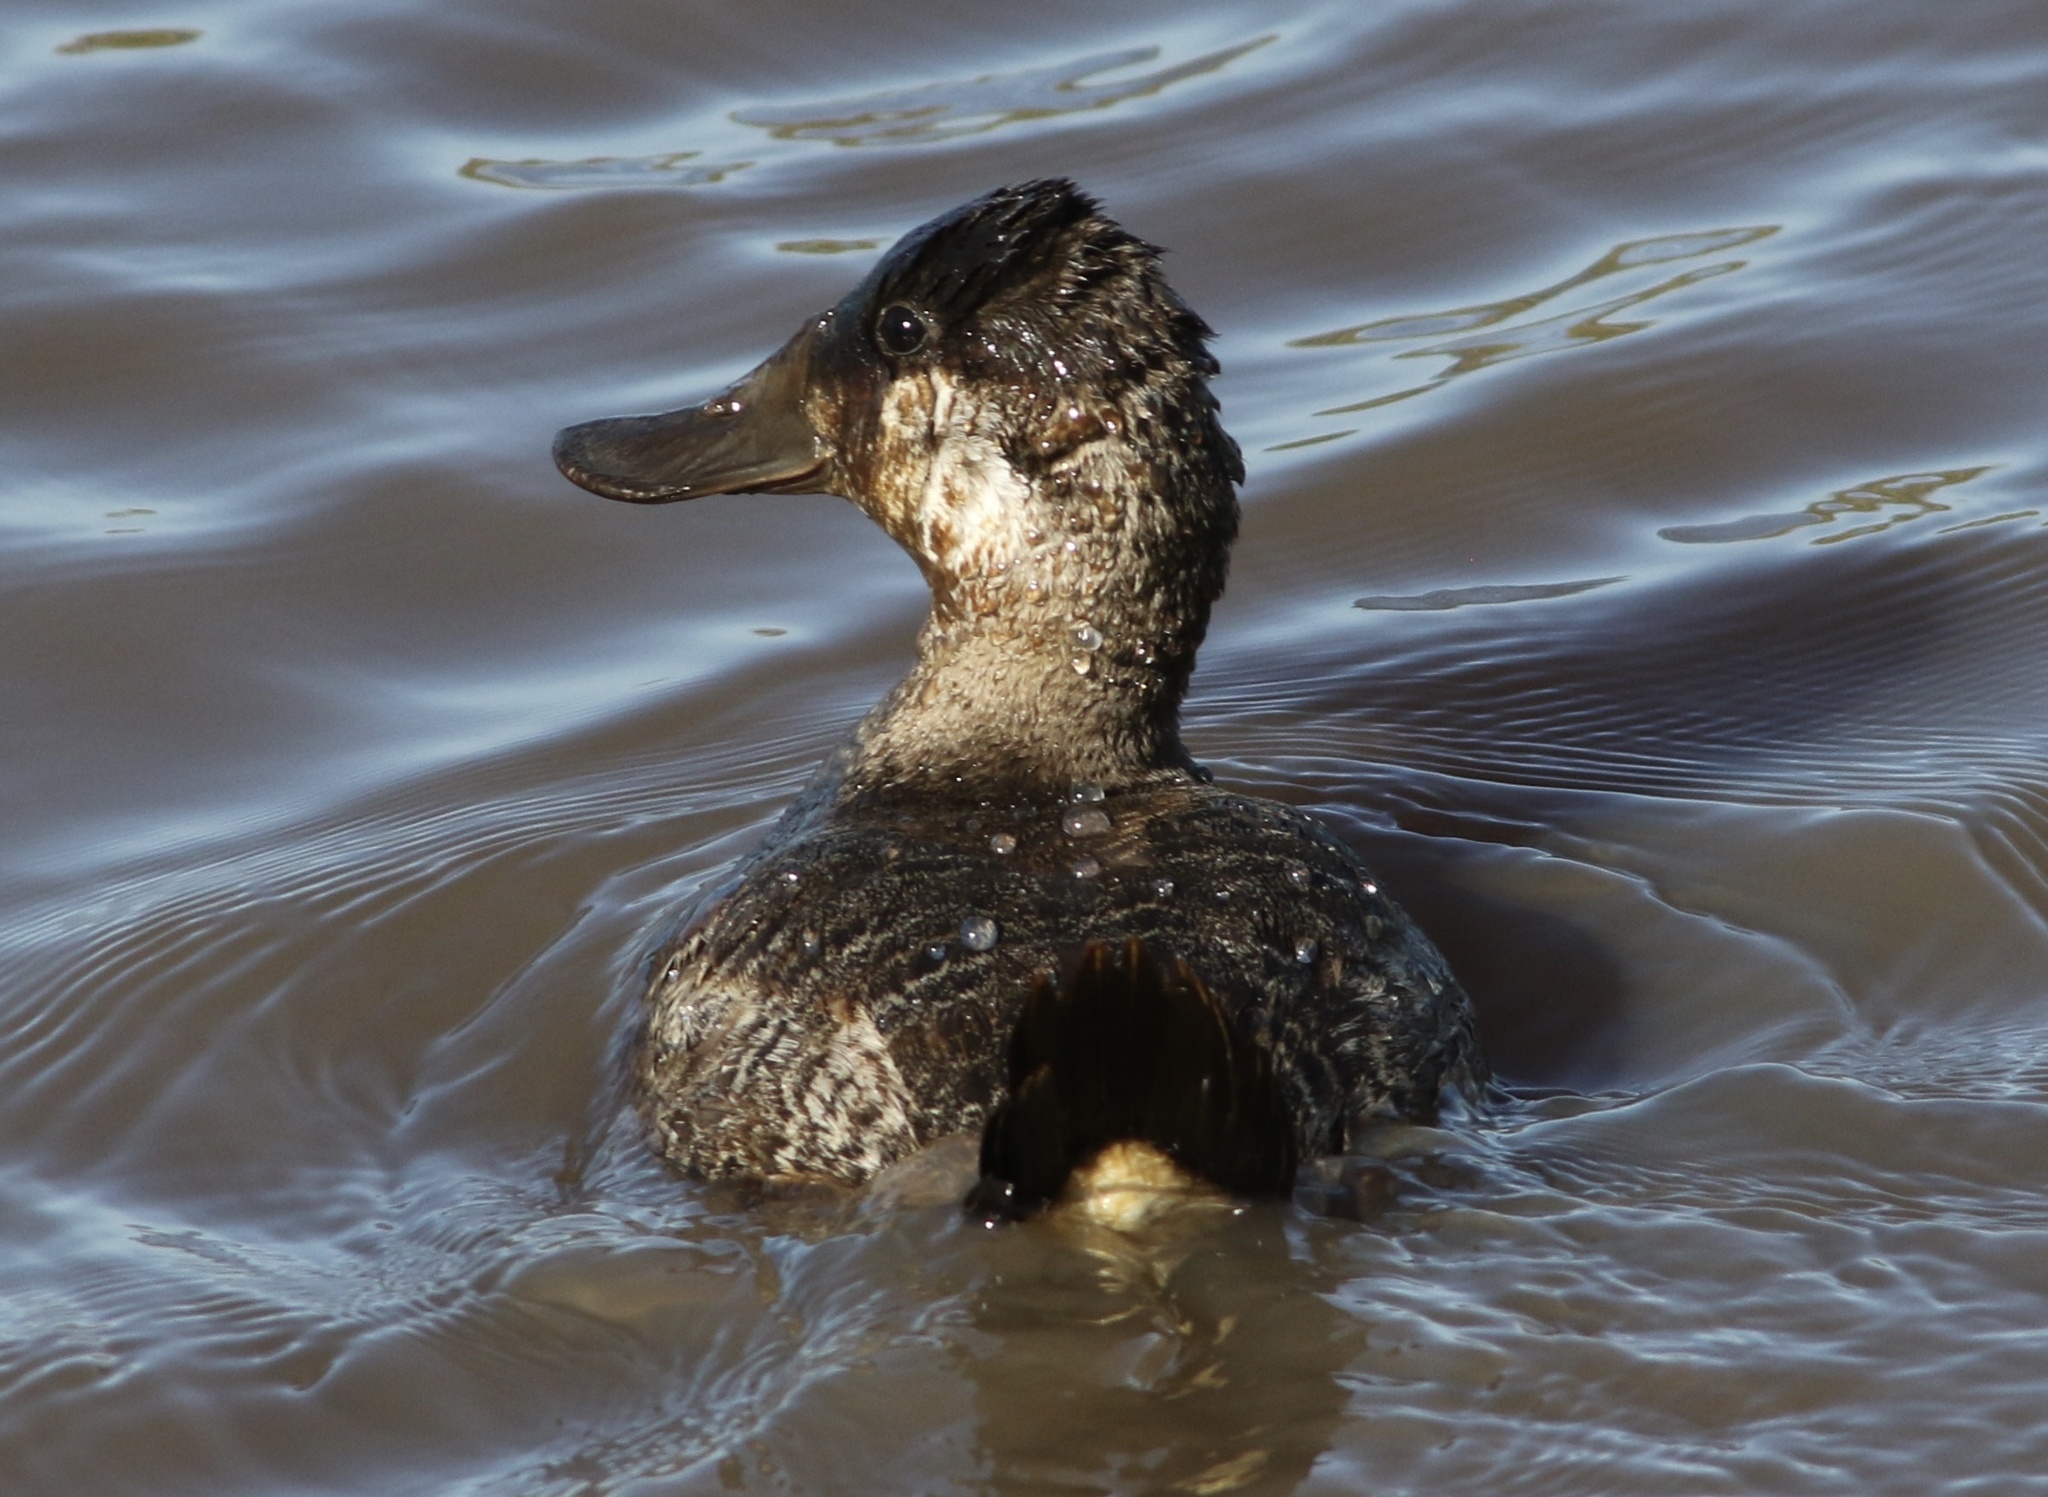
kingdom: Animalia
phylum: Chordata
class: Aves
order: Anseriformes
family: Anatidae
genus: Oxyura
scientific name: Oxyura jamaicensis
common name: Ruddy duck
